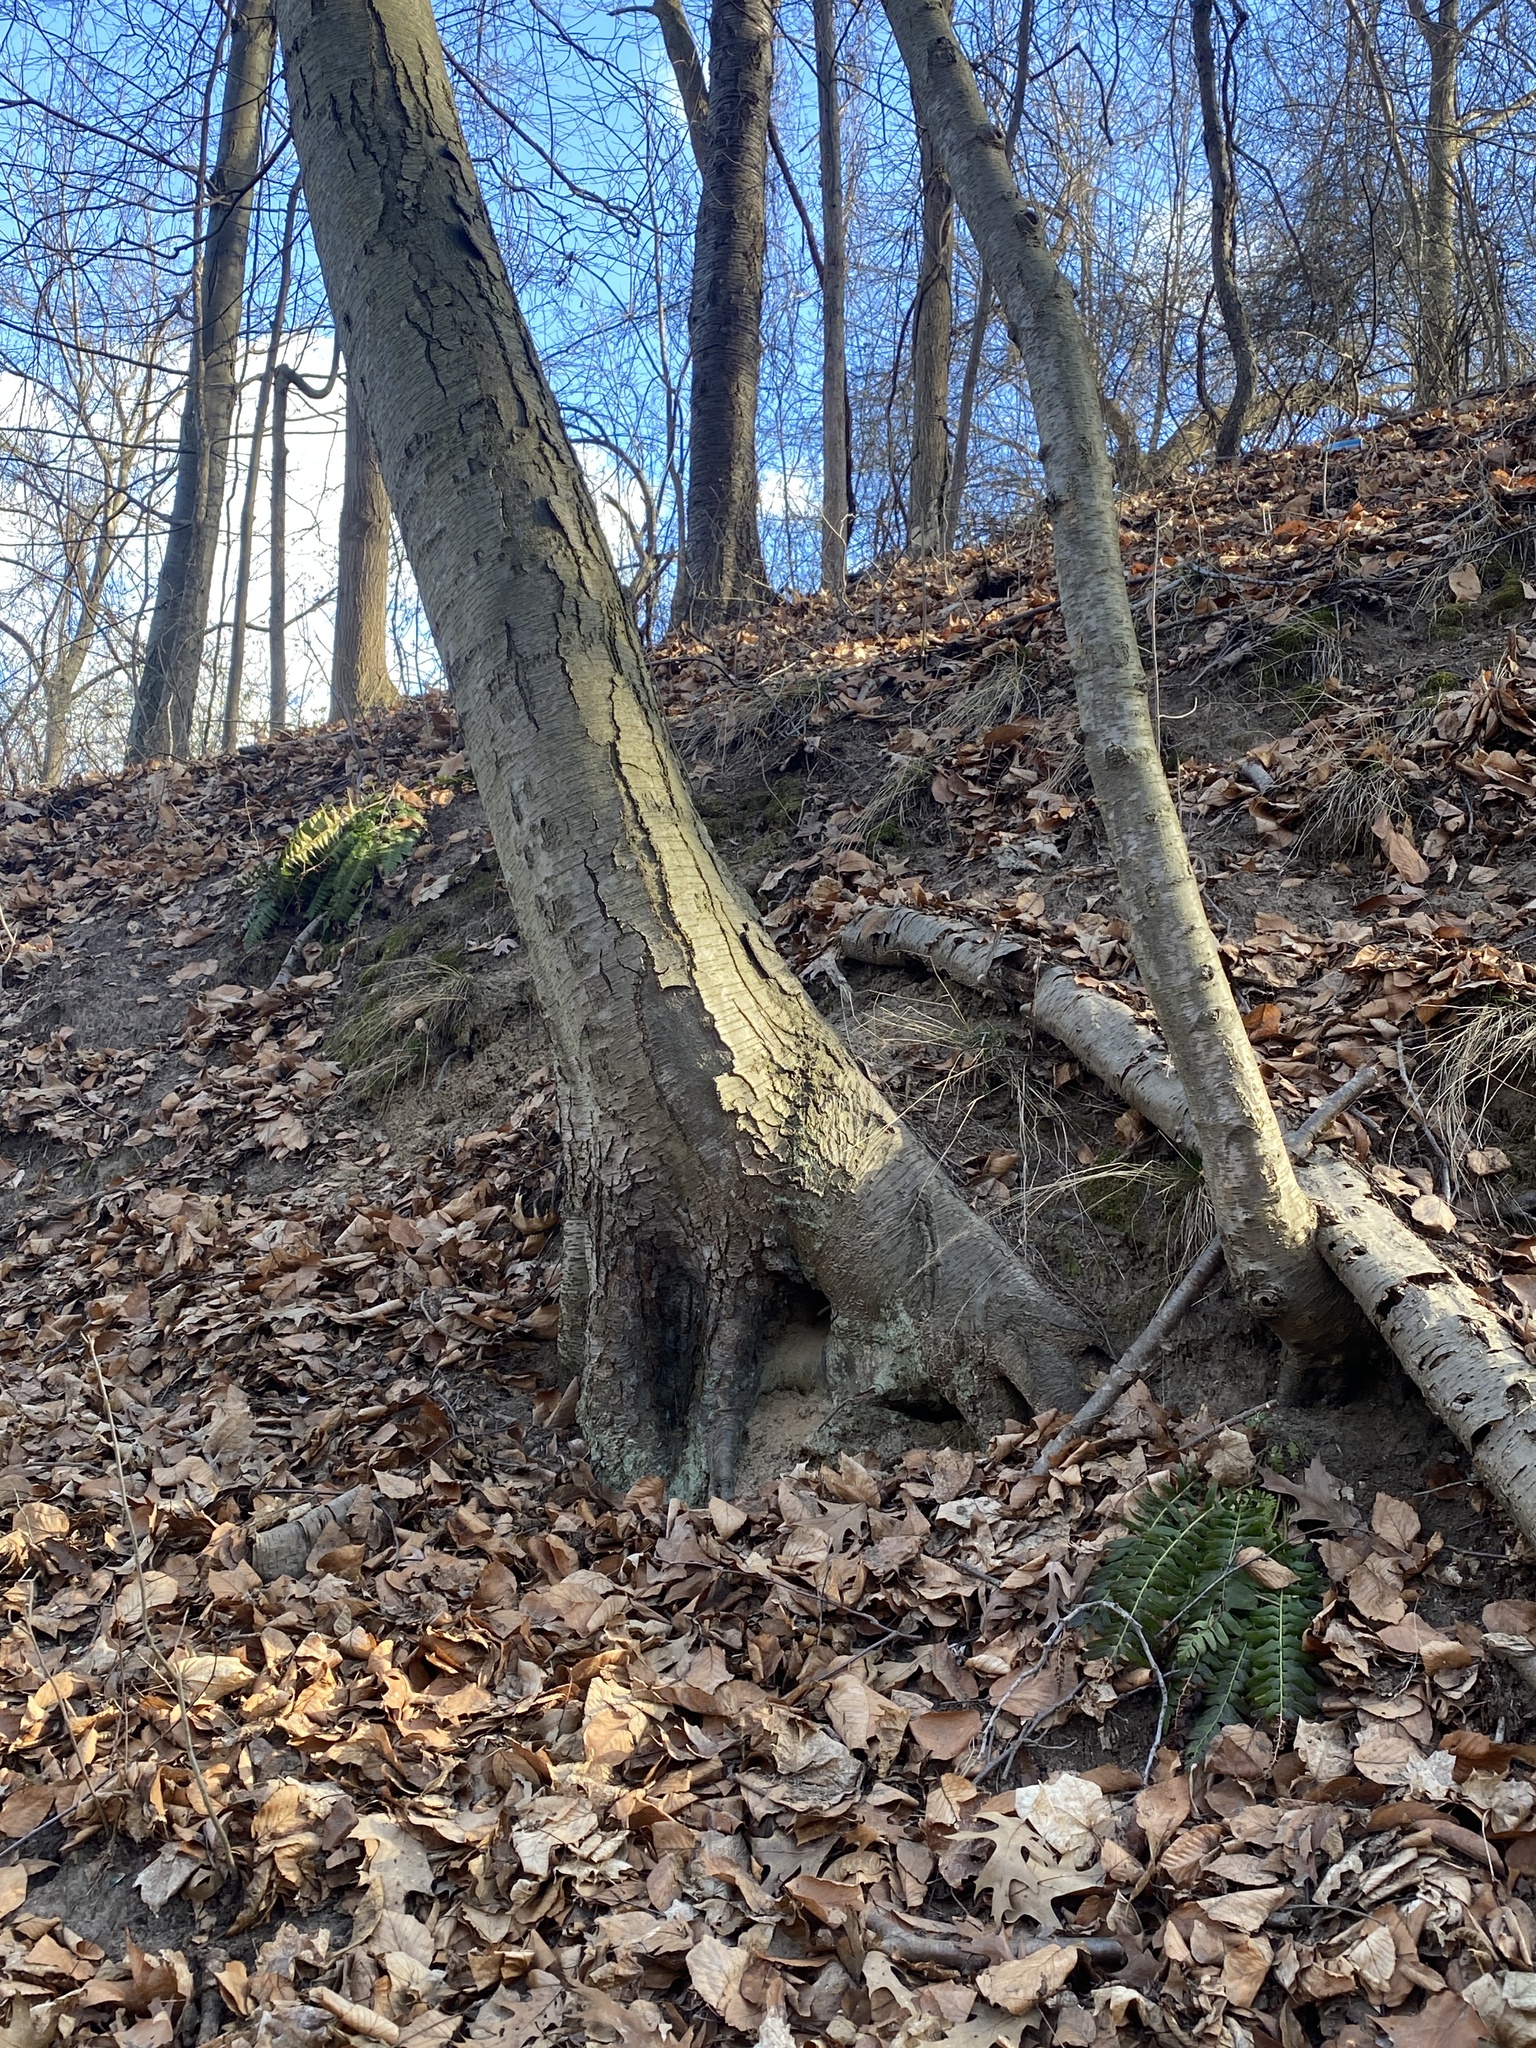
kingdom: Plantae
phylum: Tracheophyta
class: Magnoliopsida
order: Fagales
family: Betulaceae
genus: Betula
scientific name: Betula lenta
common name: Black birch
